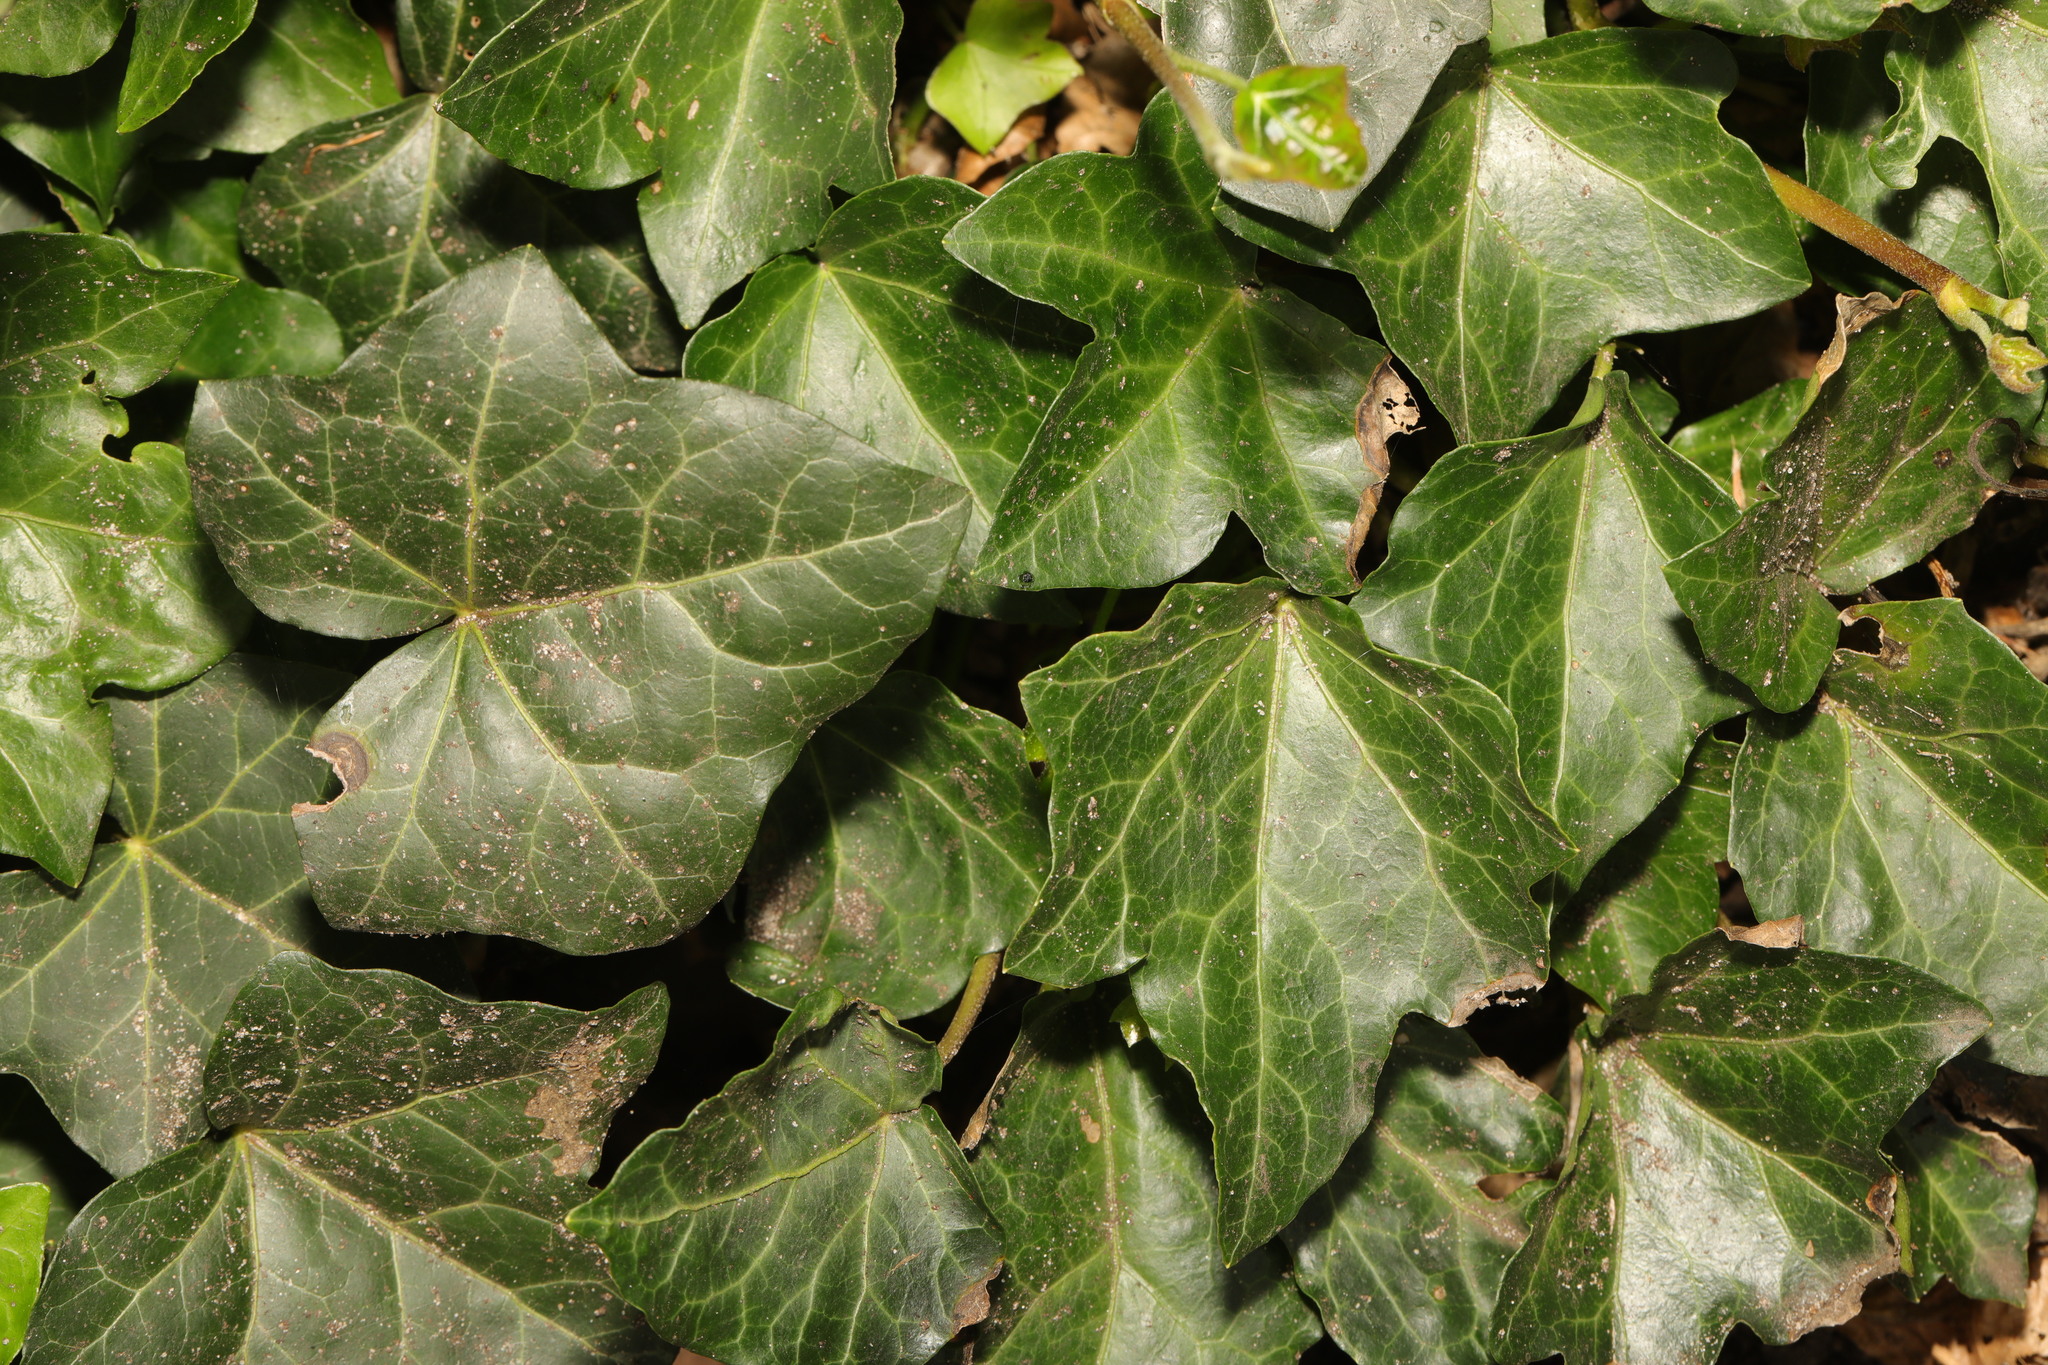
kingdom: Plantae
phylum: Tracheophyta
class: Magnoliopsida
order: Apiales
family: Araliaceae
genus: Hedera
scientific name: Hedera helix
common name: Ivy
